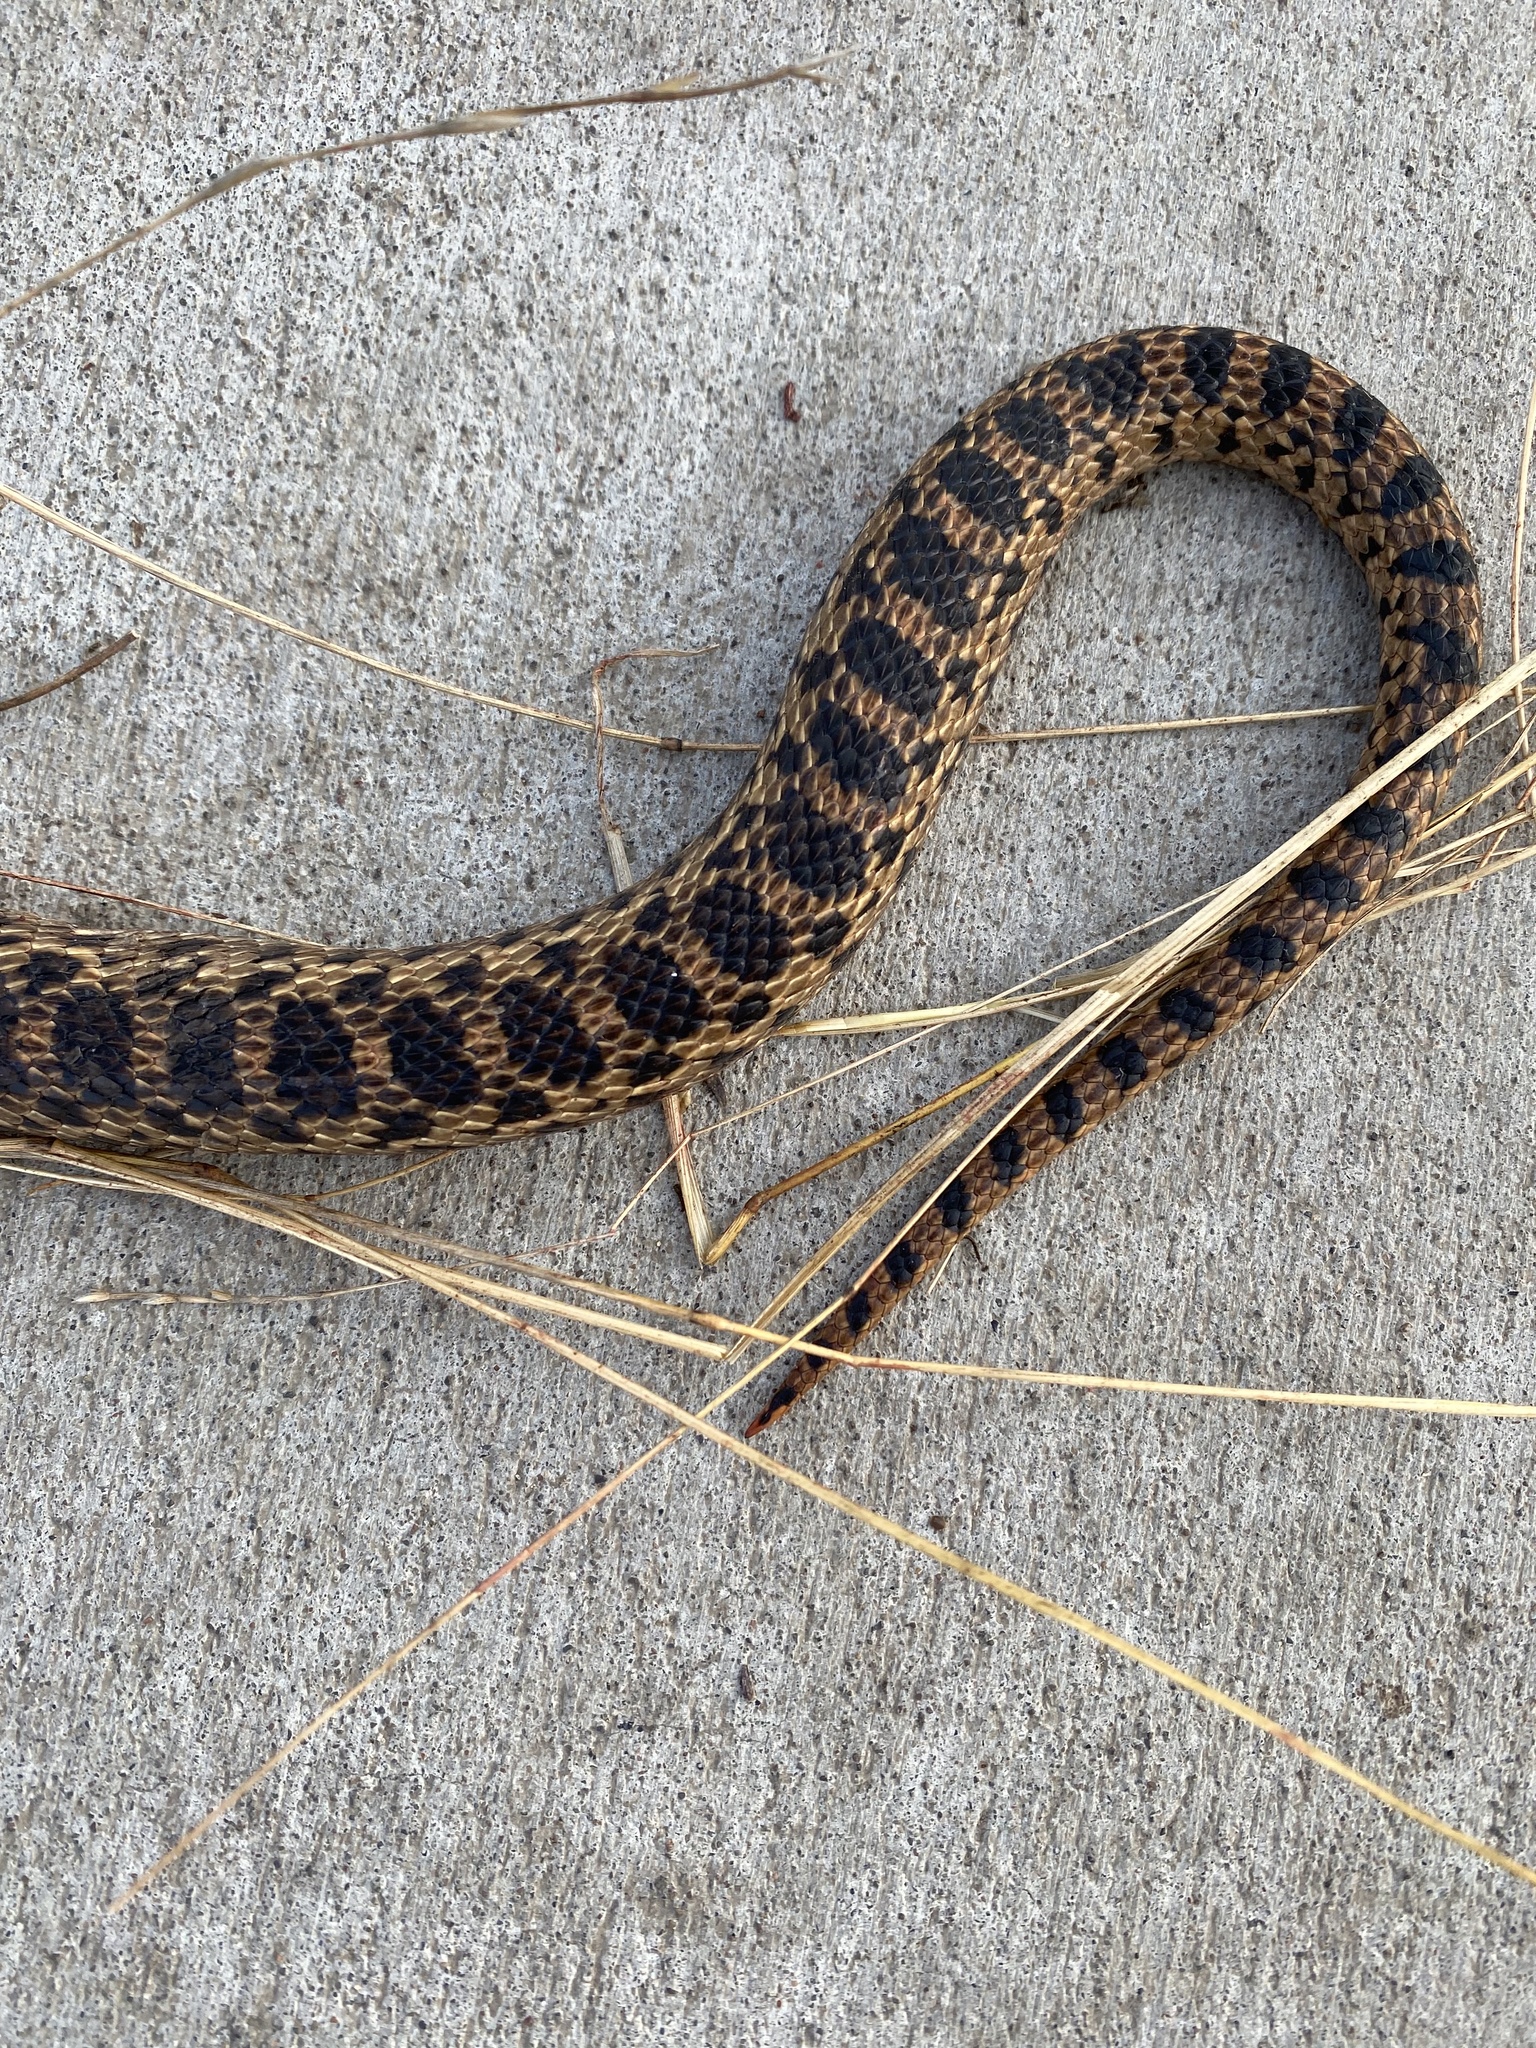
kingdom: Animalia
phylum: Chordata
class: Squamata
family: Colubridae
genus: Pituophis
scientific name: Pituophis catenifer
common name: Gopher snake
